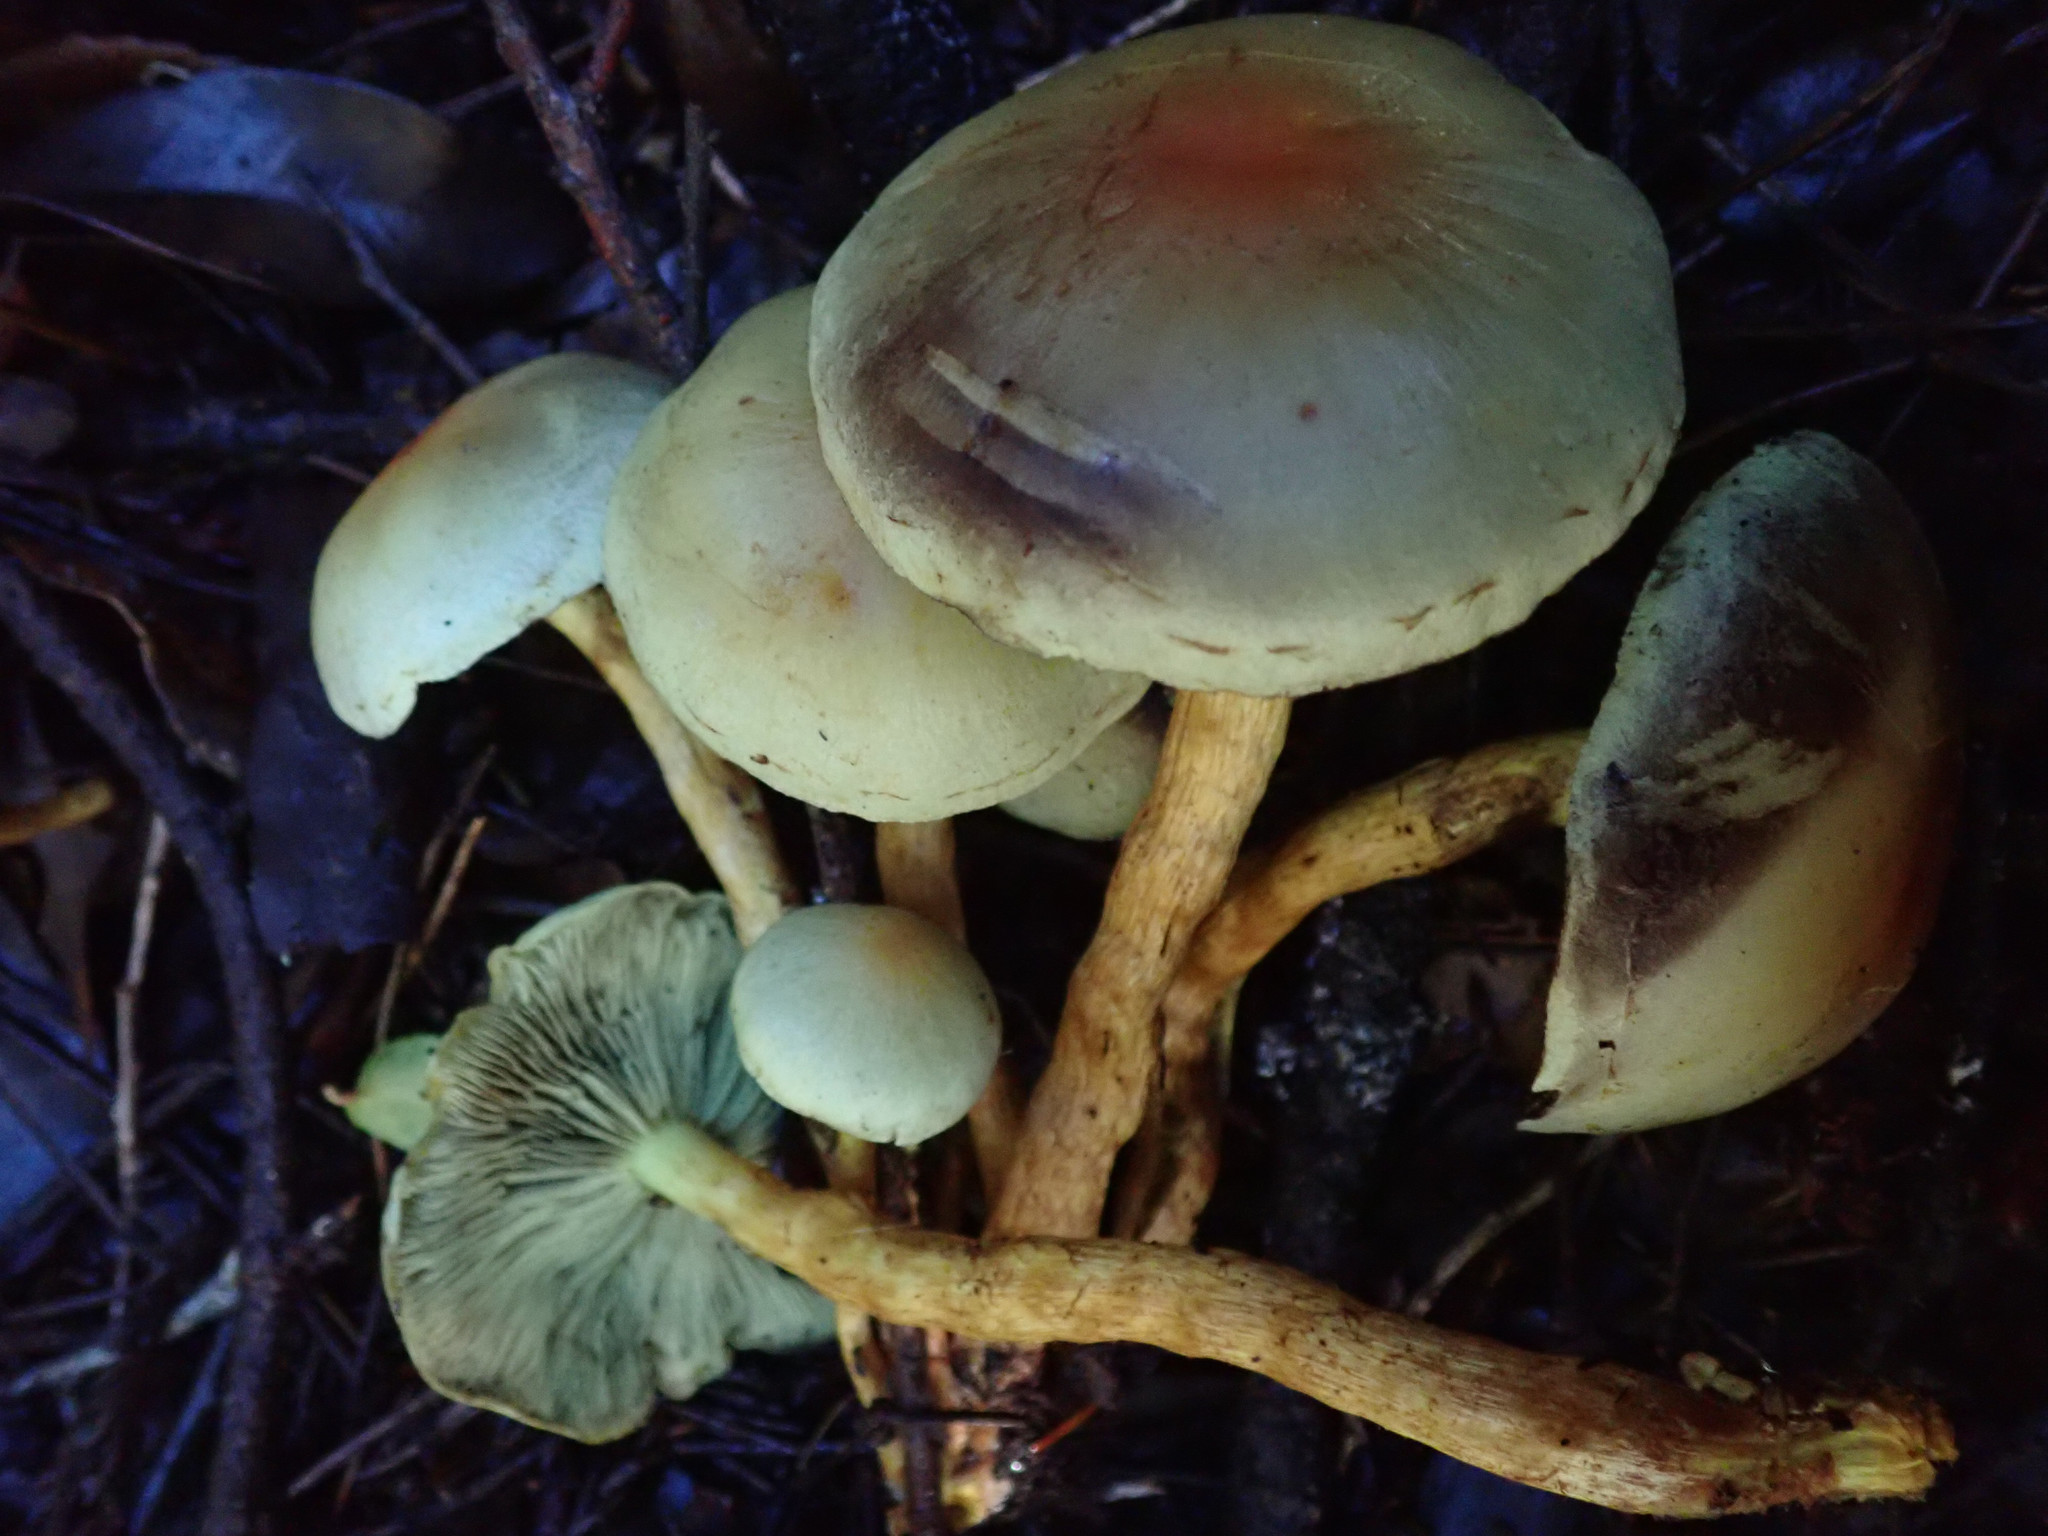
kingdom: Fungi
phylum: Basidiomycota
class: Agaricomycetes
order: Agaricales
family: Strophariaceae
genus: Hypholoma
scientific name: Hypholoma fasciculare
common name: Sulphur tuft
